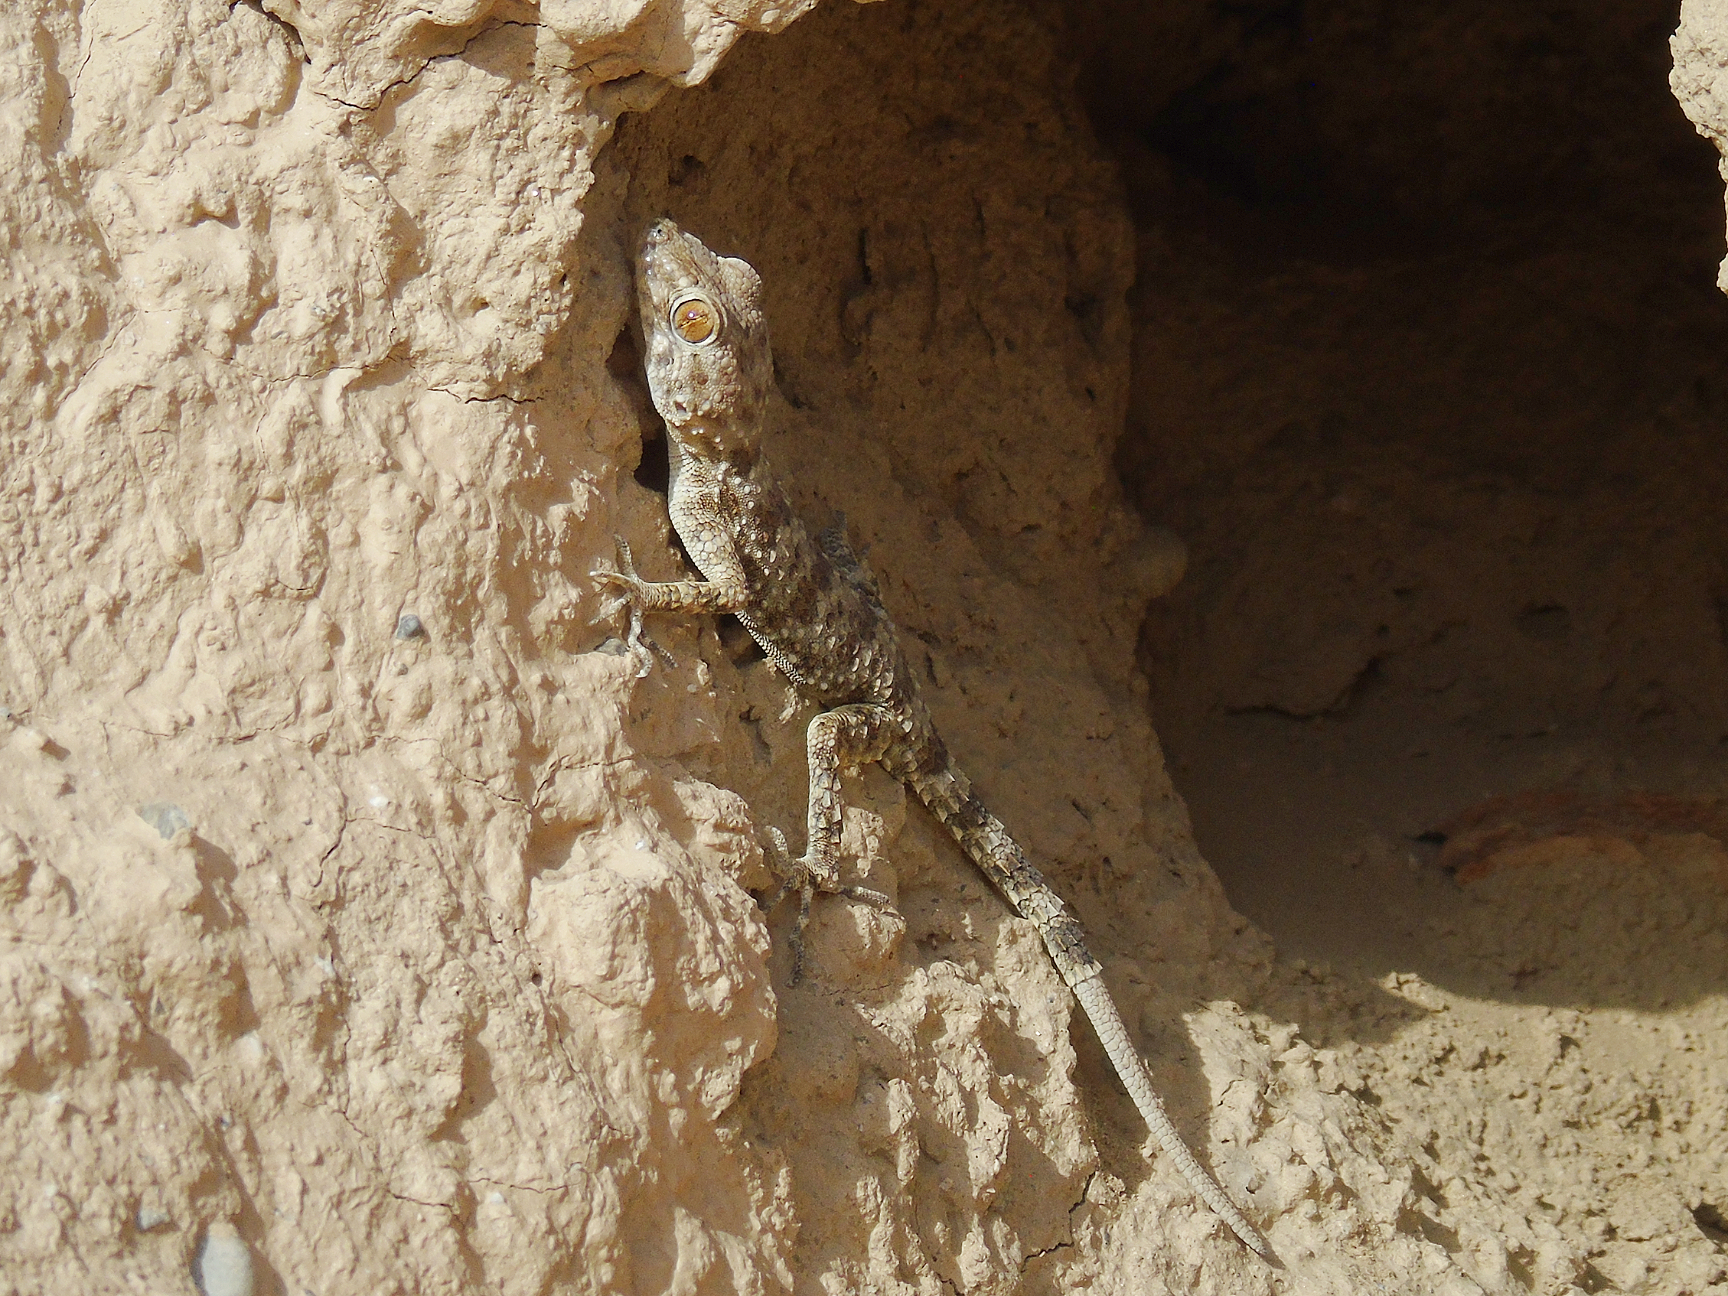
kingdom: Animalia
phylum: Chordata
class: Squamata
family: Gekkonidae
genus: Tenuidactylus
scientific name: Tenuidactylus fedtschenkoi
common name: Turkestan thin-toed gecko
